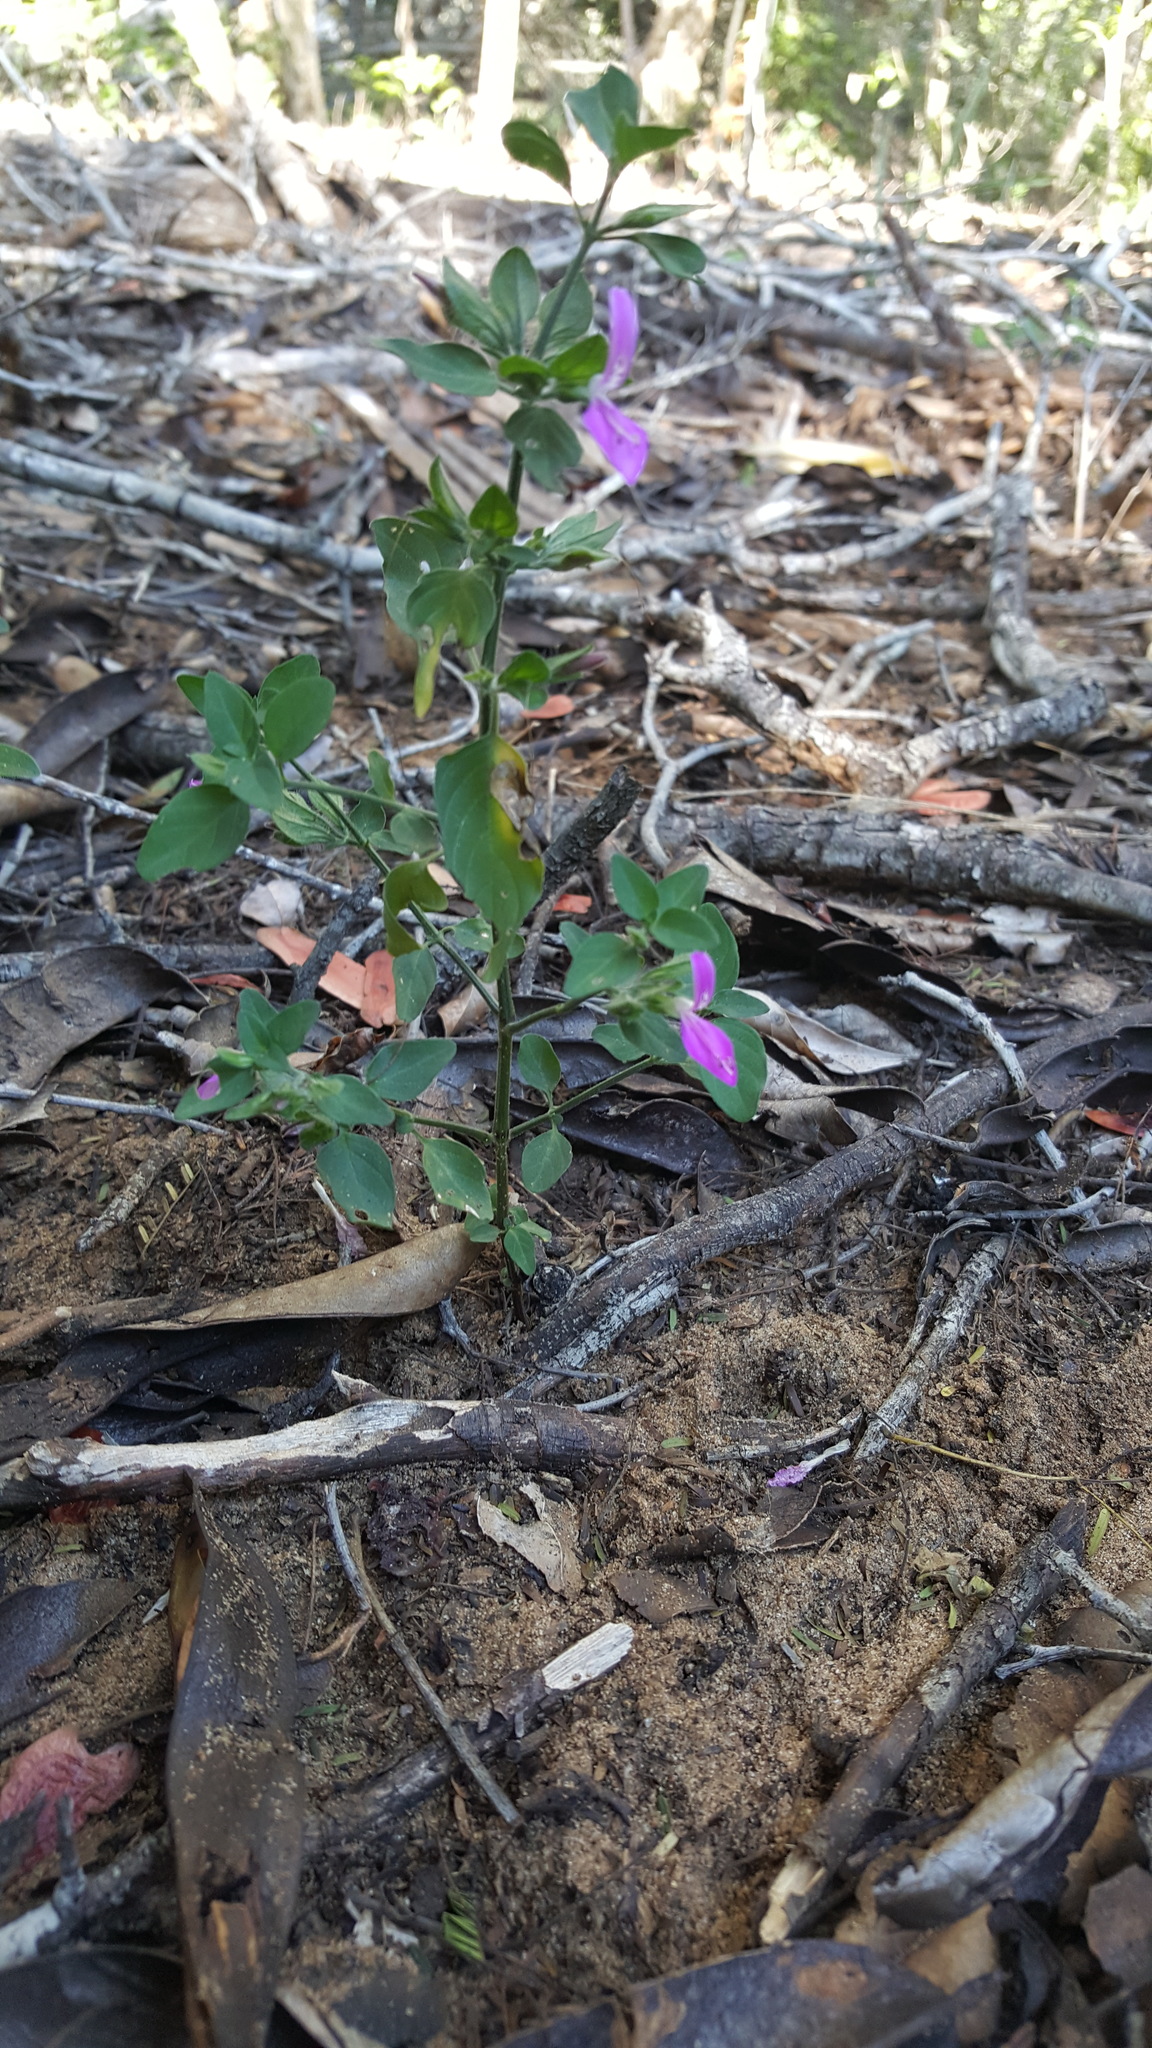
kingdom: Plantae
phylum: Tracheophyta
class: Magnoliopsida
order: Lamiales
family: Acanthaceae
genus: Dicliptera
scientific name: Dicliptera quintasii
